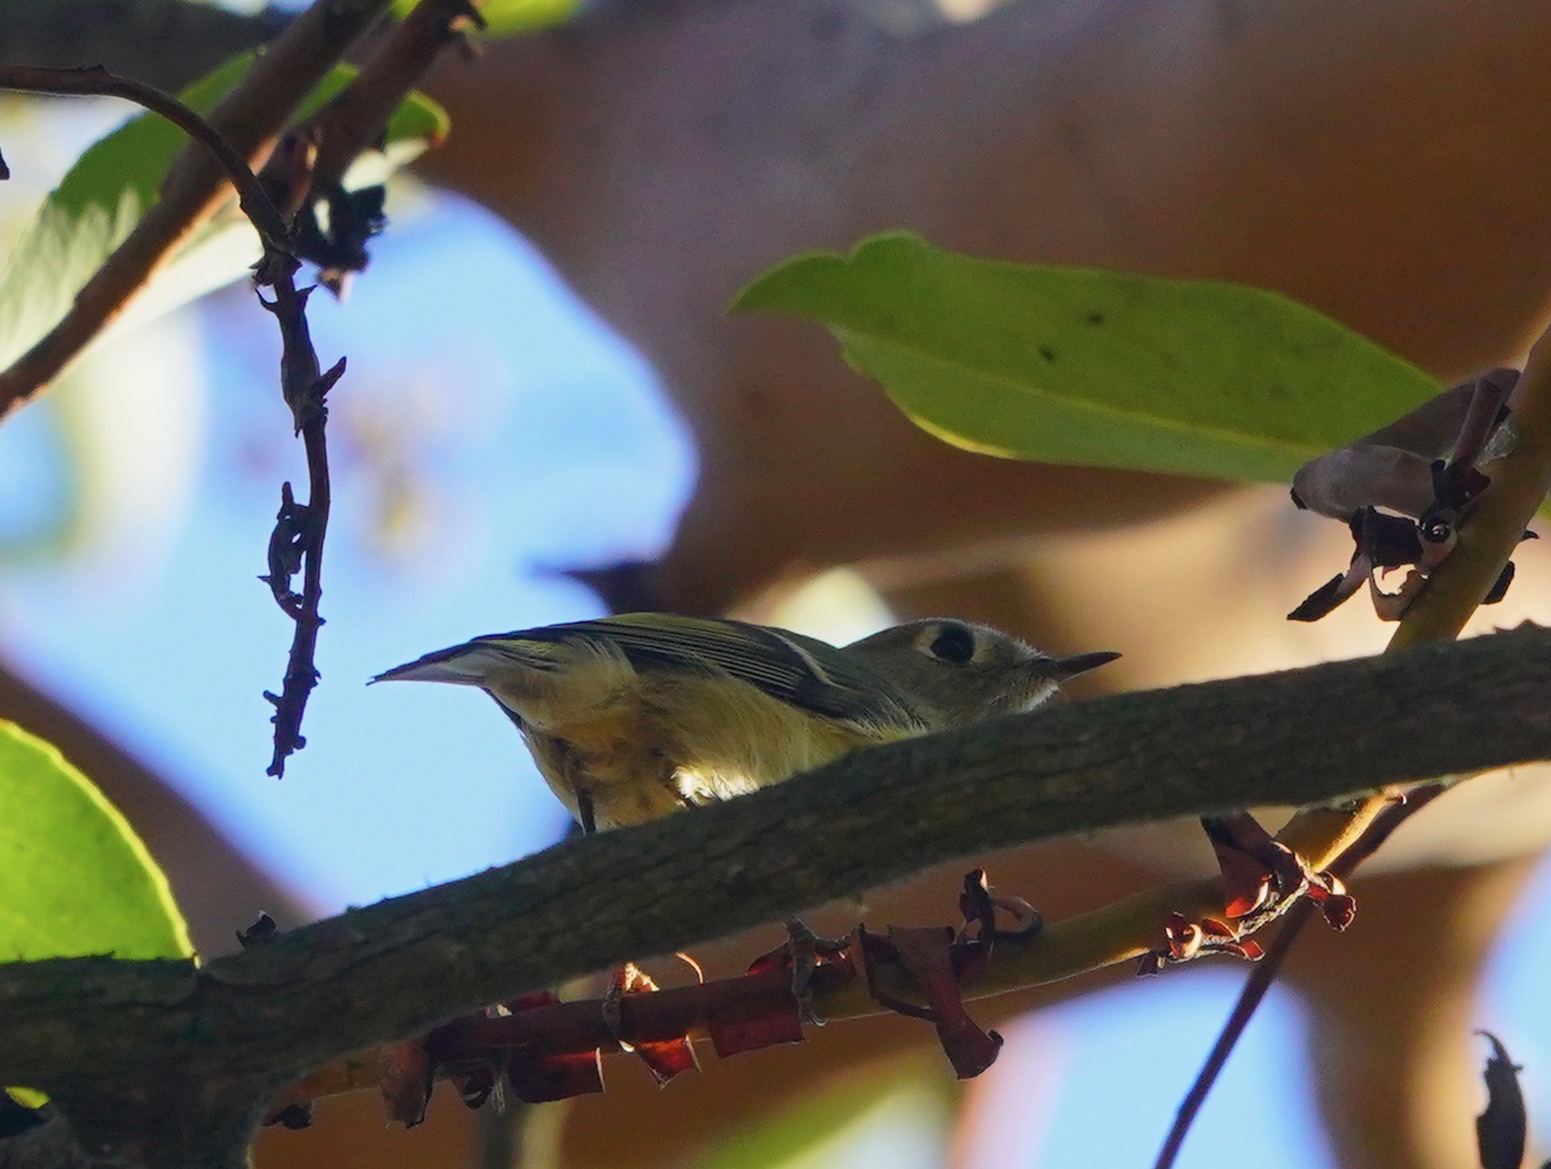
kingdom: Animalia
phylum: Chordata
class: Aves
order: Passeriformes
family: Regulidae
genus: Regulus
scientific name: Regulus calendula
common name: Ruby-crowned kinglet
